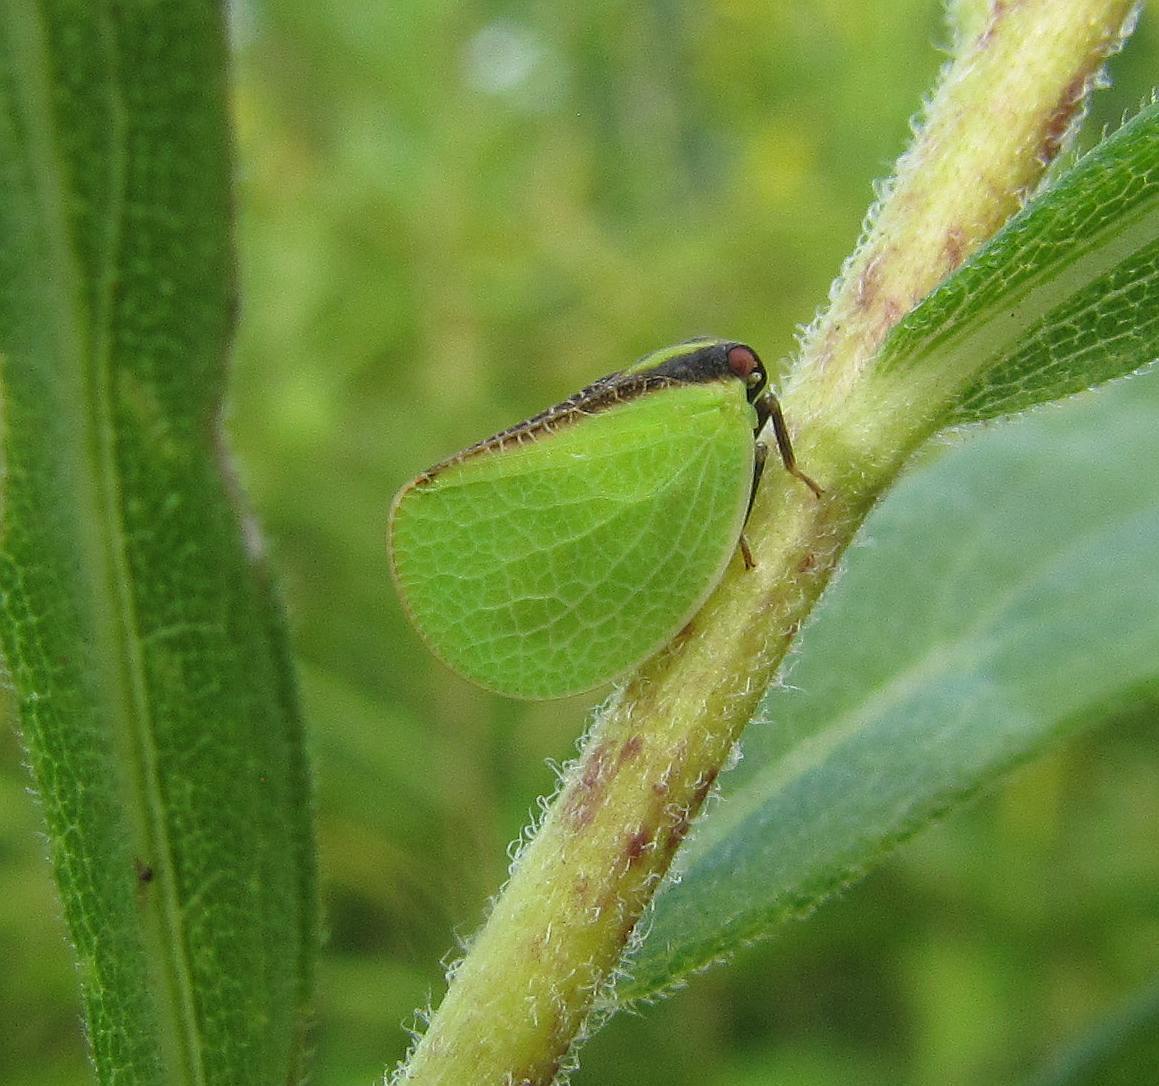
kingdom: Animalia
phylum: Arthropoda
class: Insecta
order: Hemiptera
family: Acanaloniidae
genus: Acanalonia
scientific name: Acanalonia bivittata
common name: Two-striped planthopper
